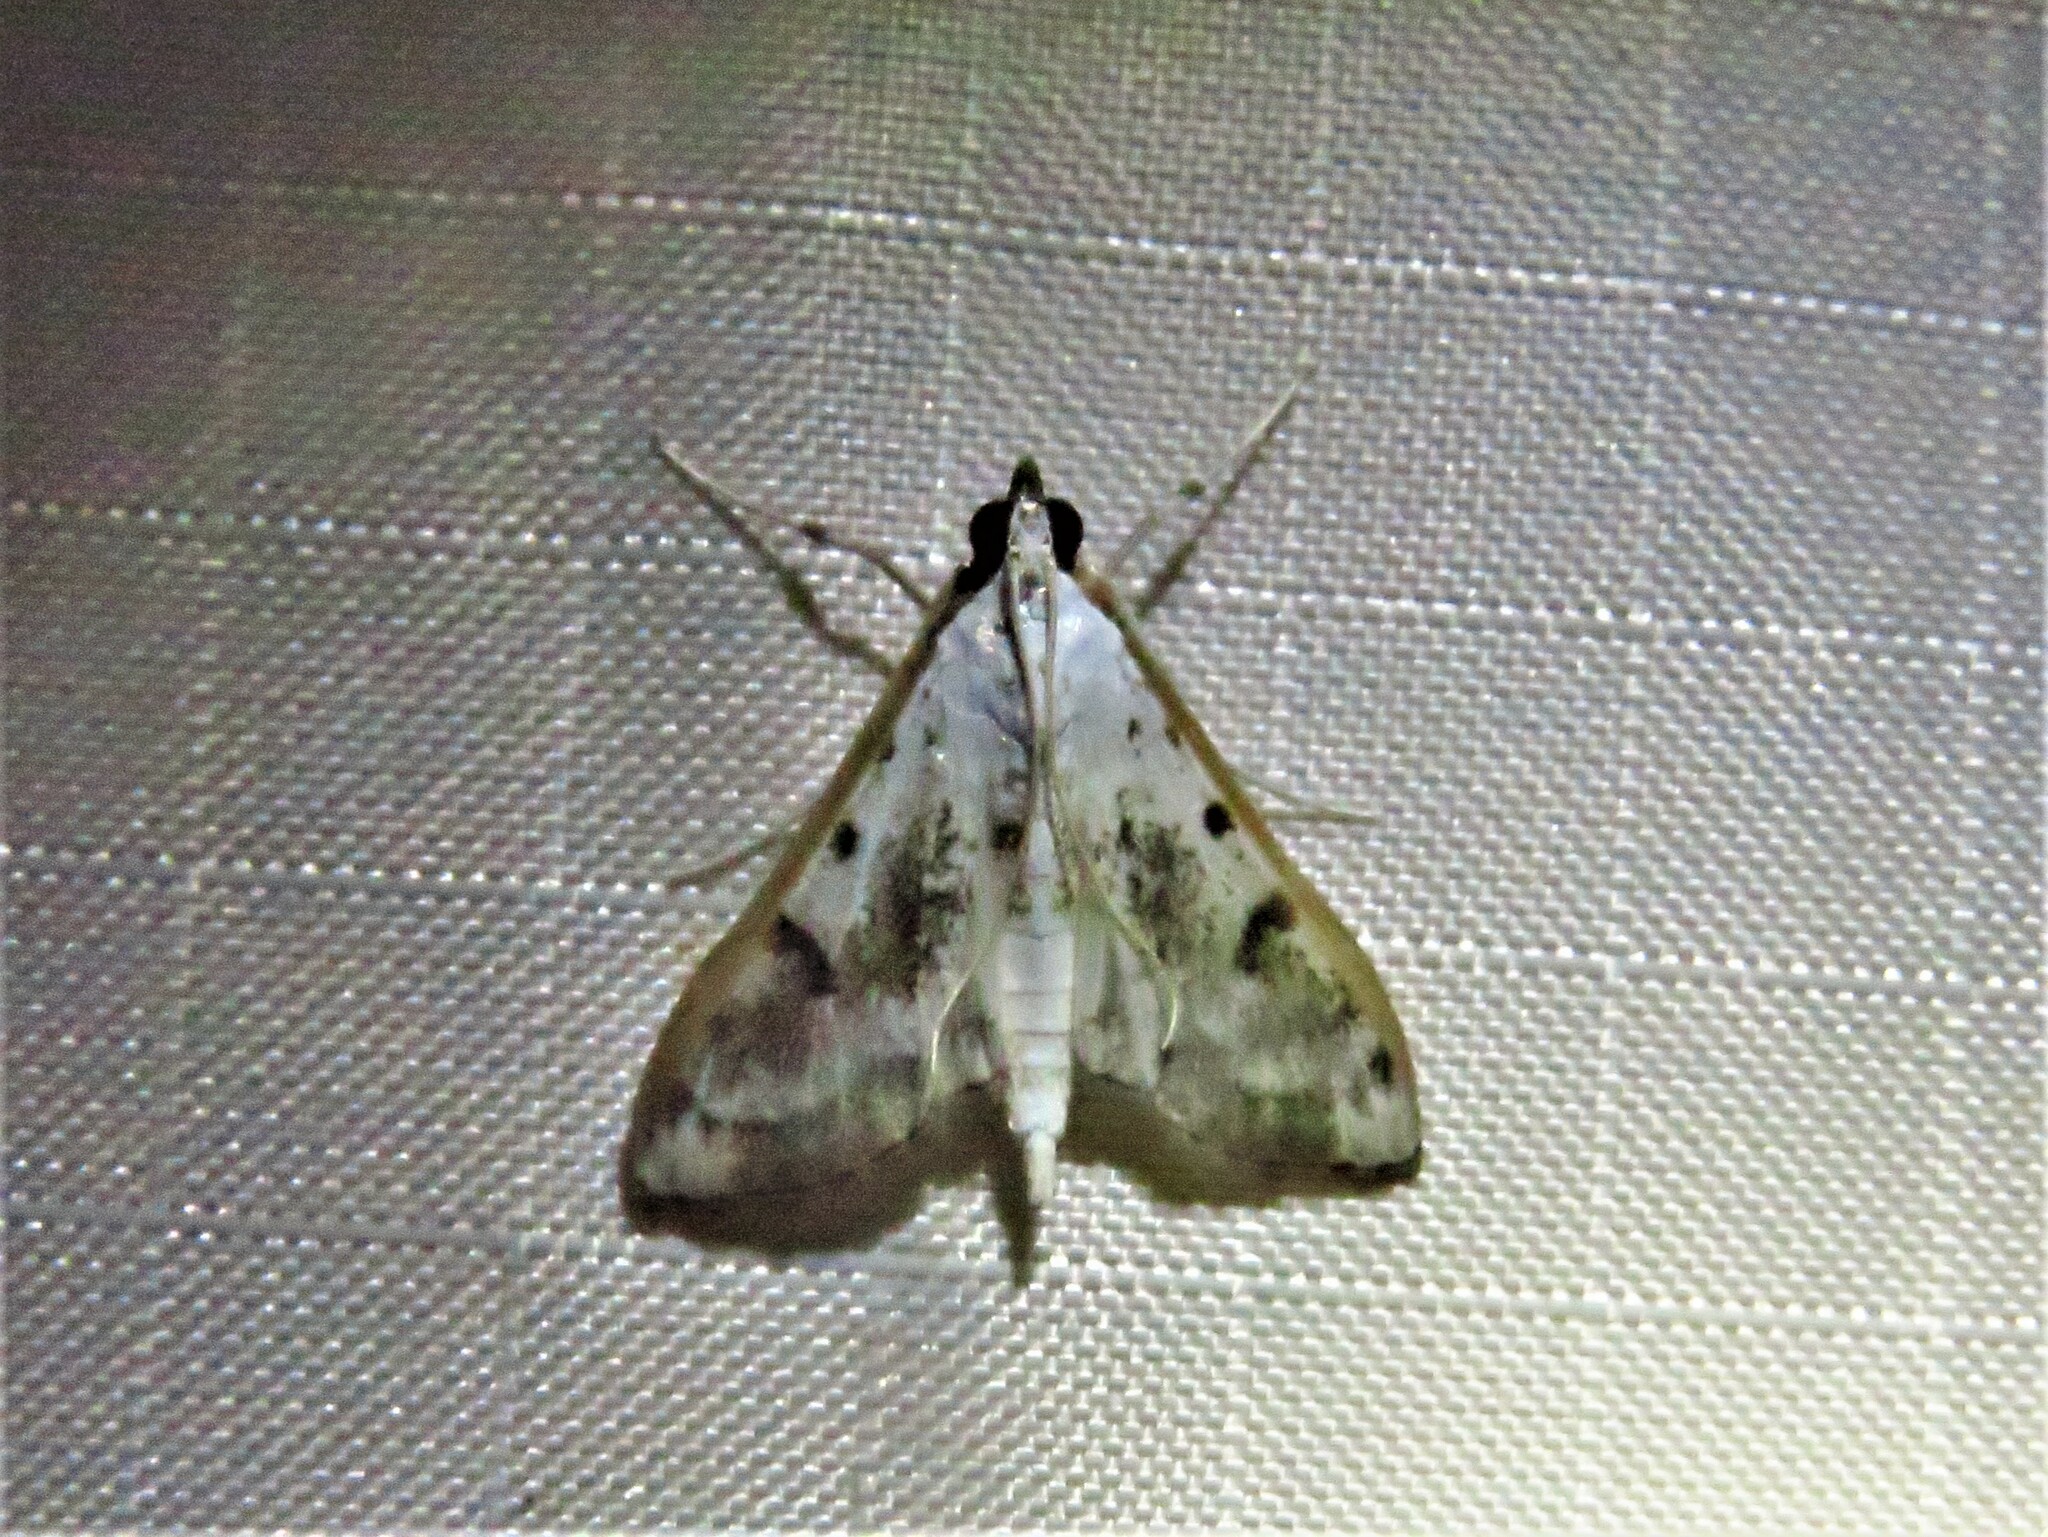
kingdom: Animalia
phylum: Arthropoda
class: Insecta
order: Lepidoptera
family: Crambidae
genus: Palpita
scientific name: Palpita gracilalis
